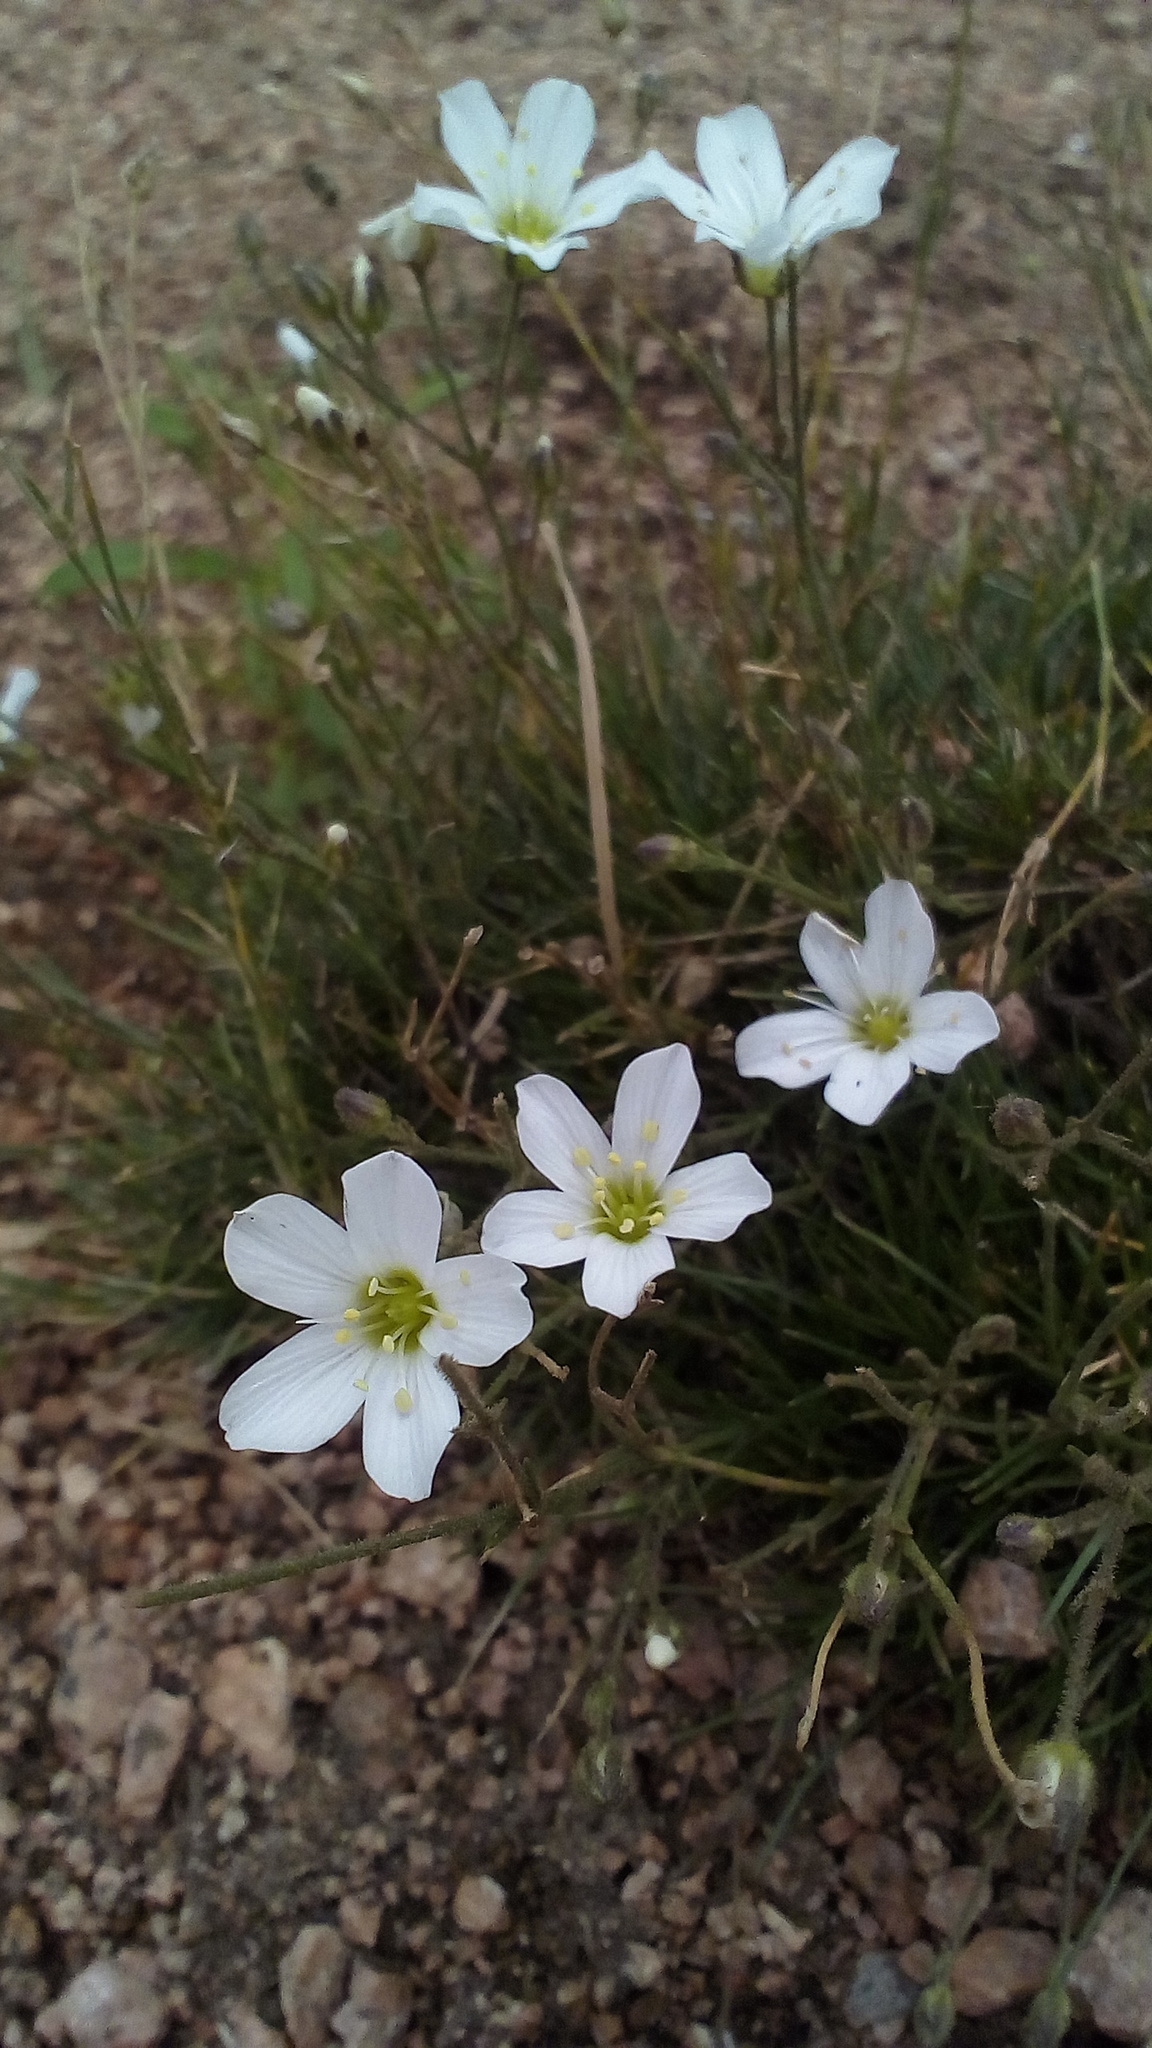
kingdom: Plantae
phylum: Tracheophyta
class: Magnoliopsida
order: Caryophyllales
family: Caryophyllaceae
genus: Eremogone
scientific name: Eremogone meyeri
